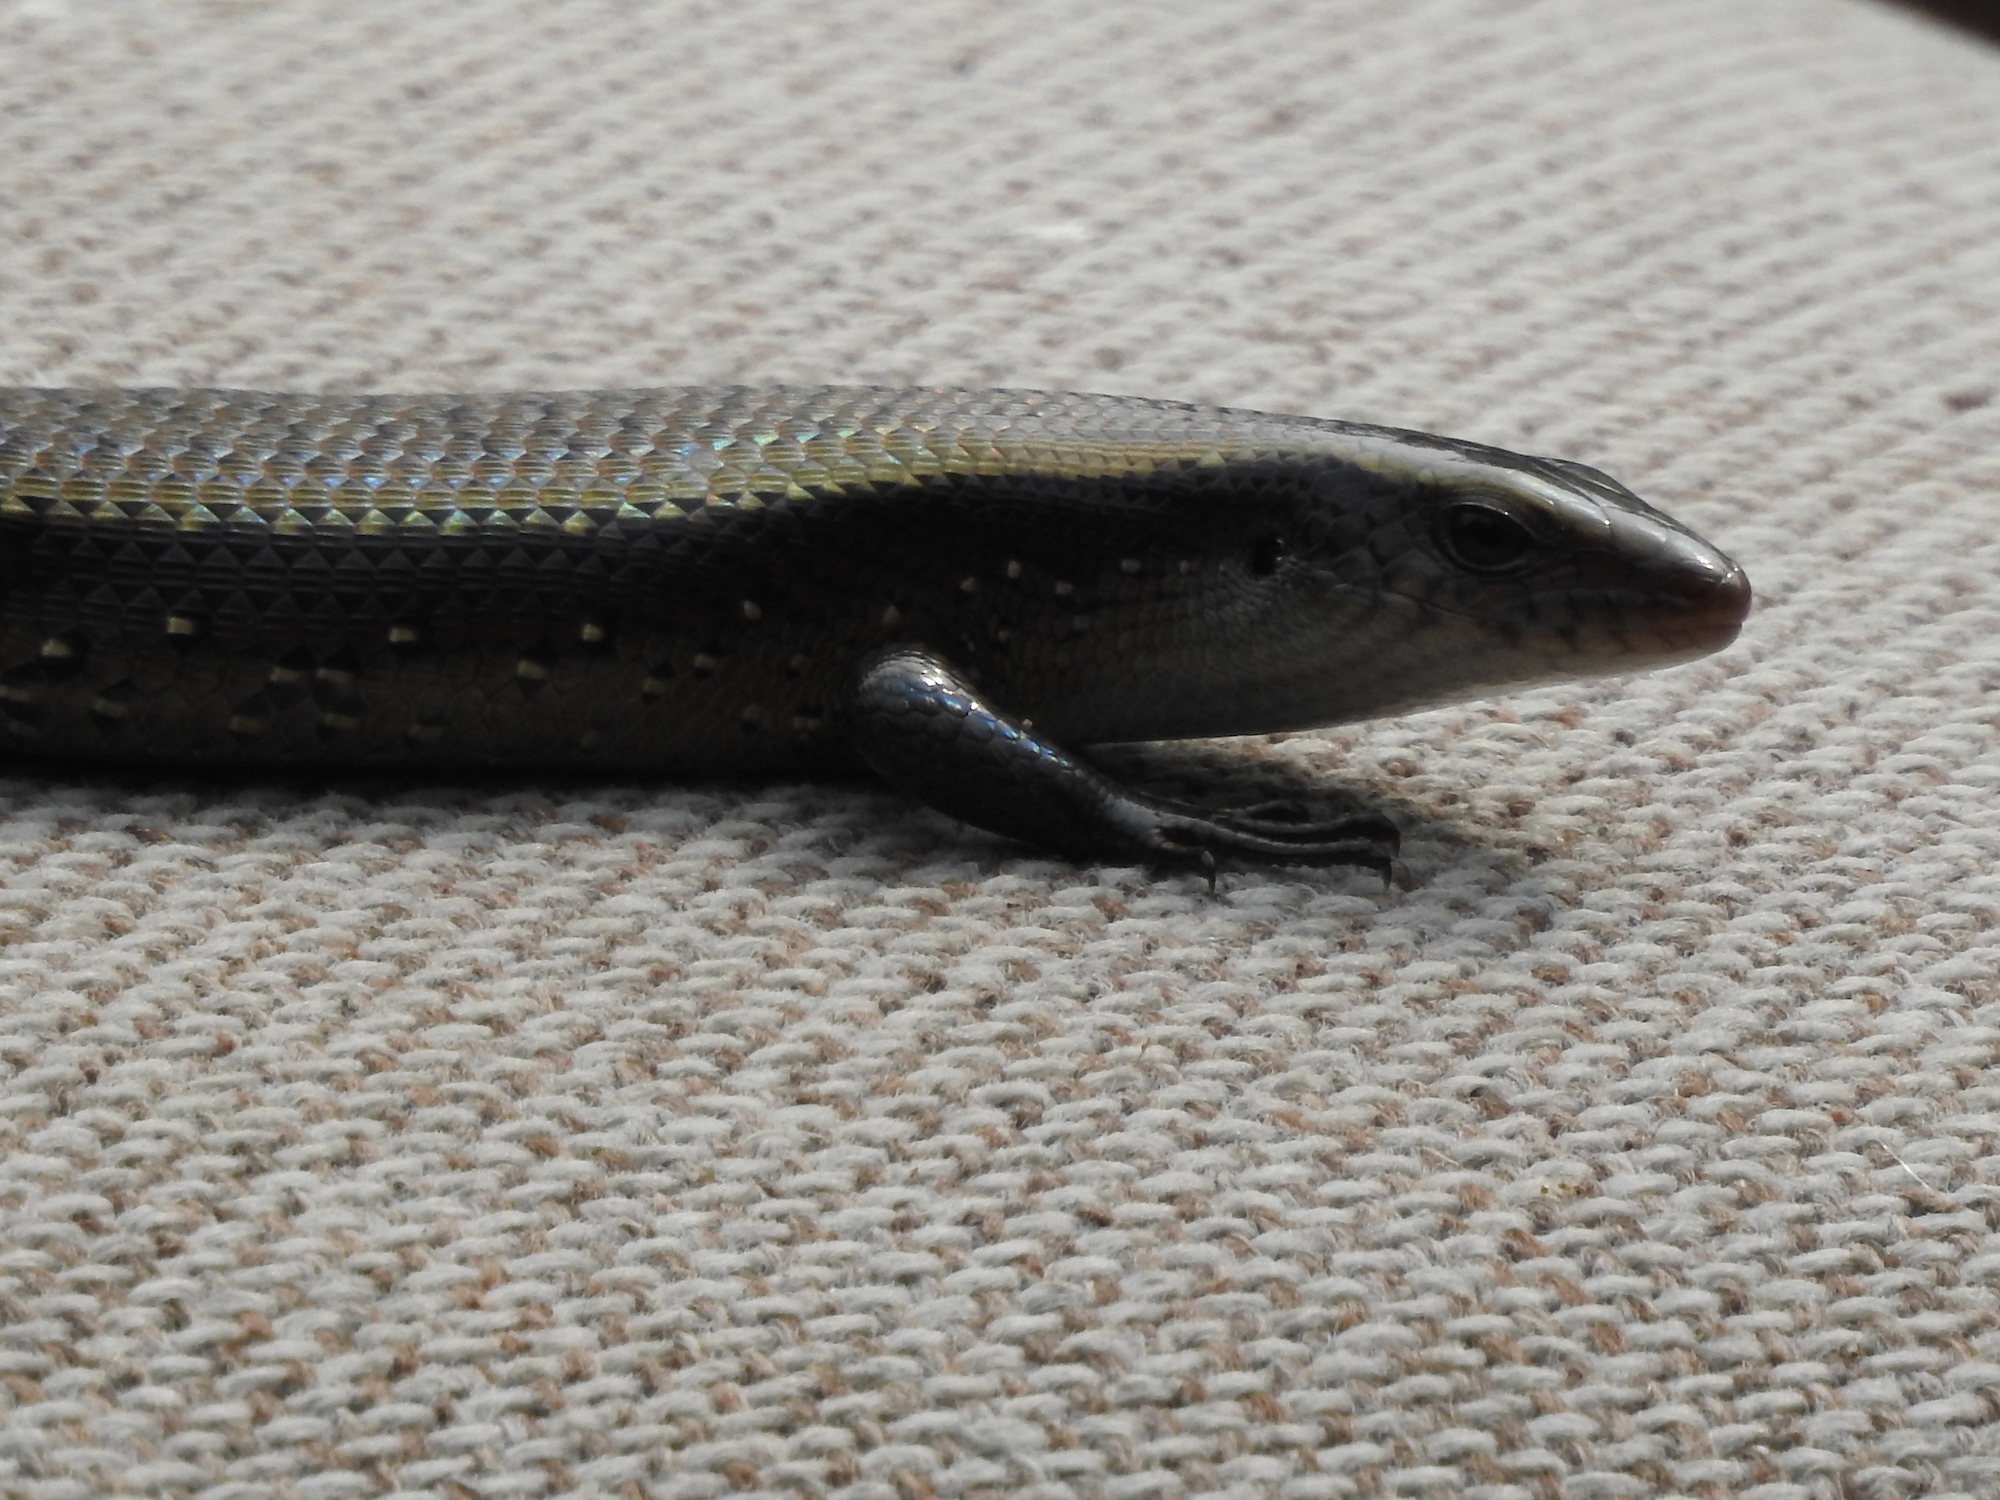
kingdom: Animalia
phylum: Chordata
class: Squamata
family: Scincidae
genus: Eutropis
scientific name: Eutropis multifasciata
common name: Common mabuya
